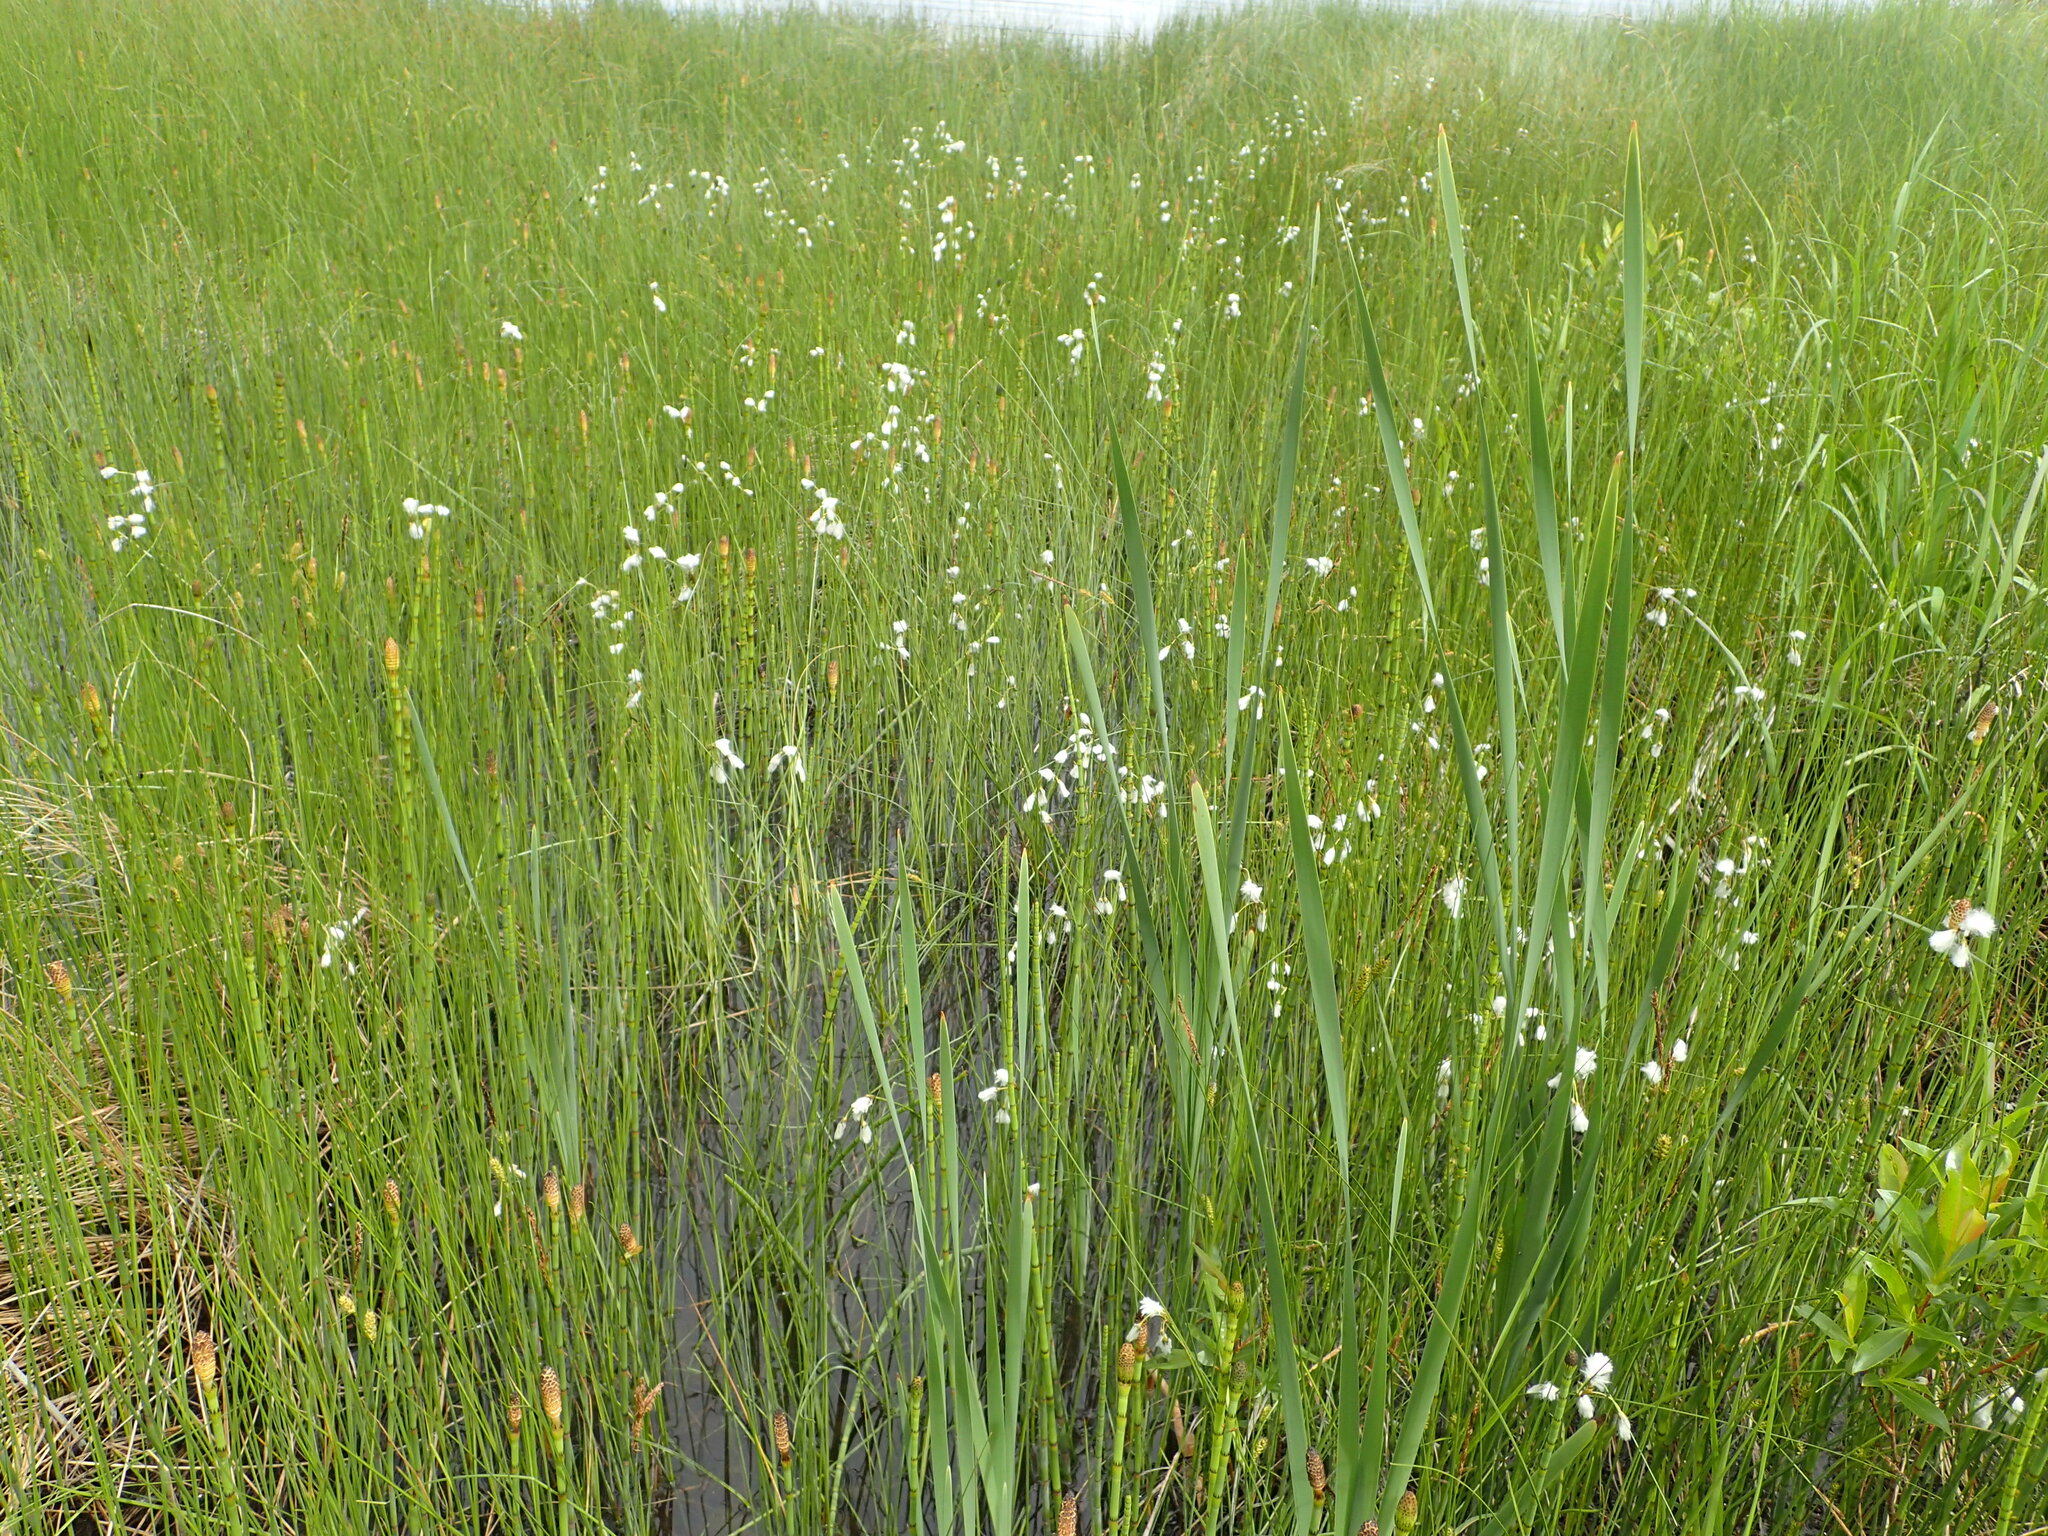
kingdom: Plantae
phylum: Tracheophyta
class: Liliopsida
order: Poales
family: Cyperaceae
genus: Eriophorum
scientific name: Eriophorum gracile
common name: Slender cottongrass
